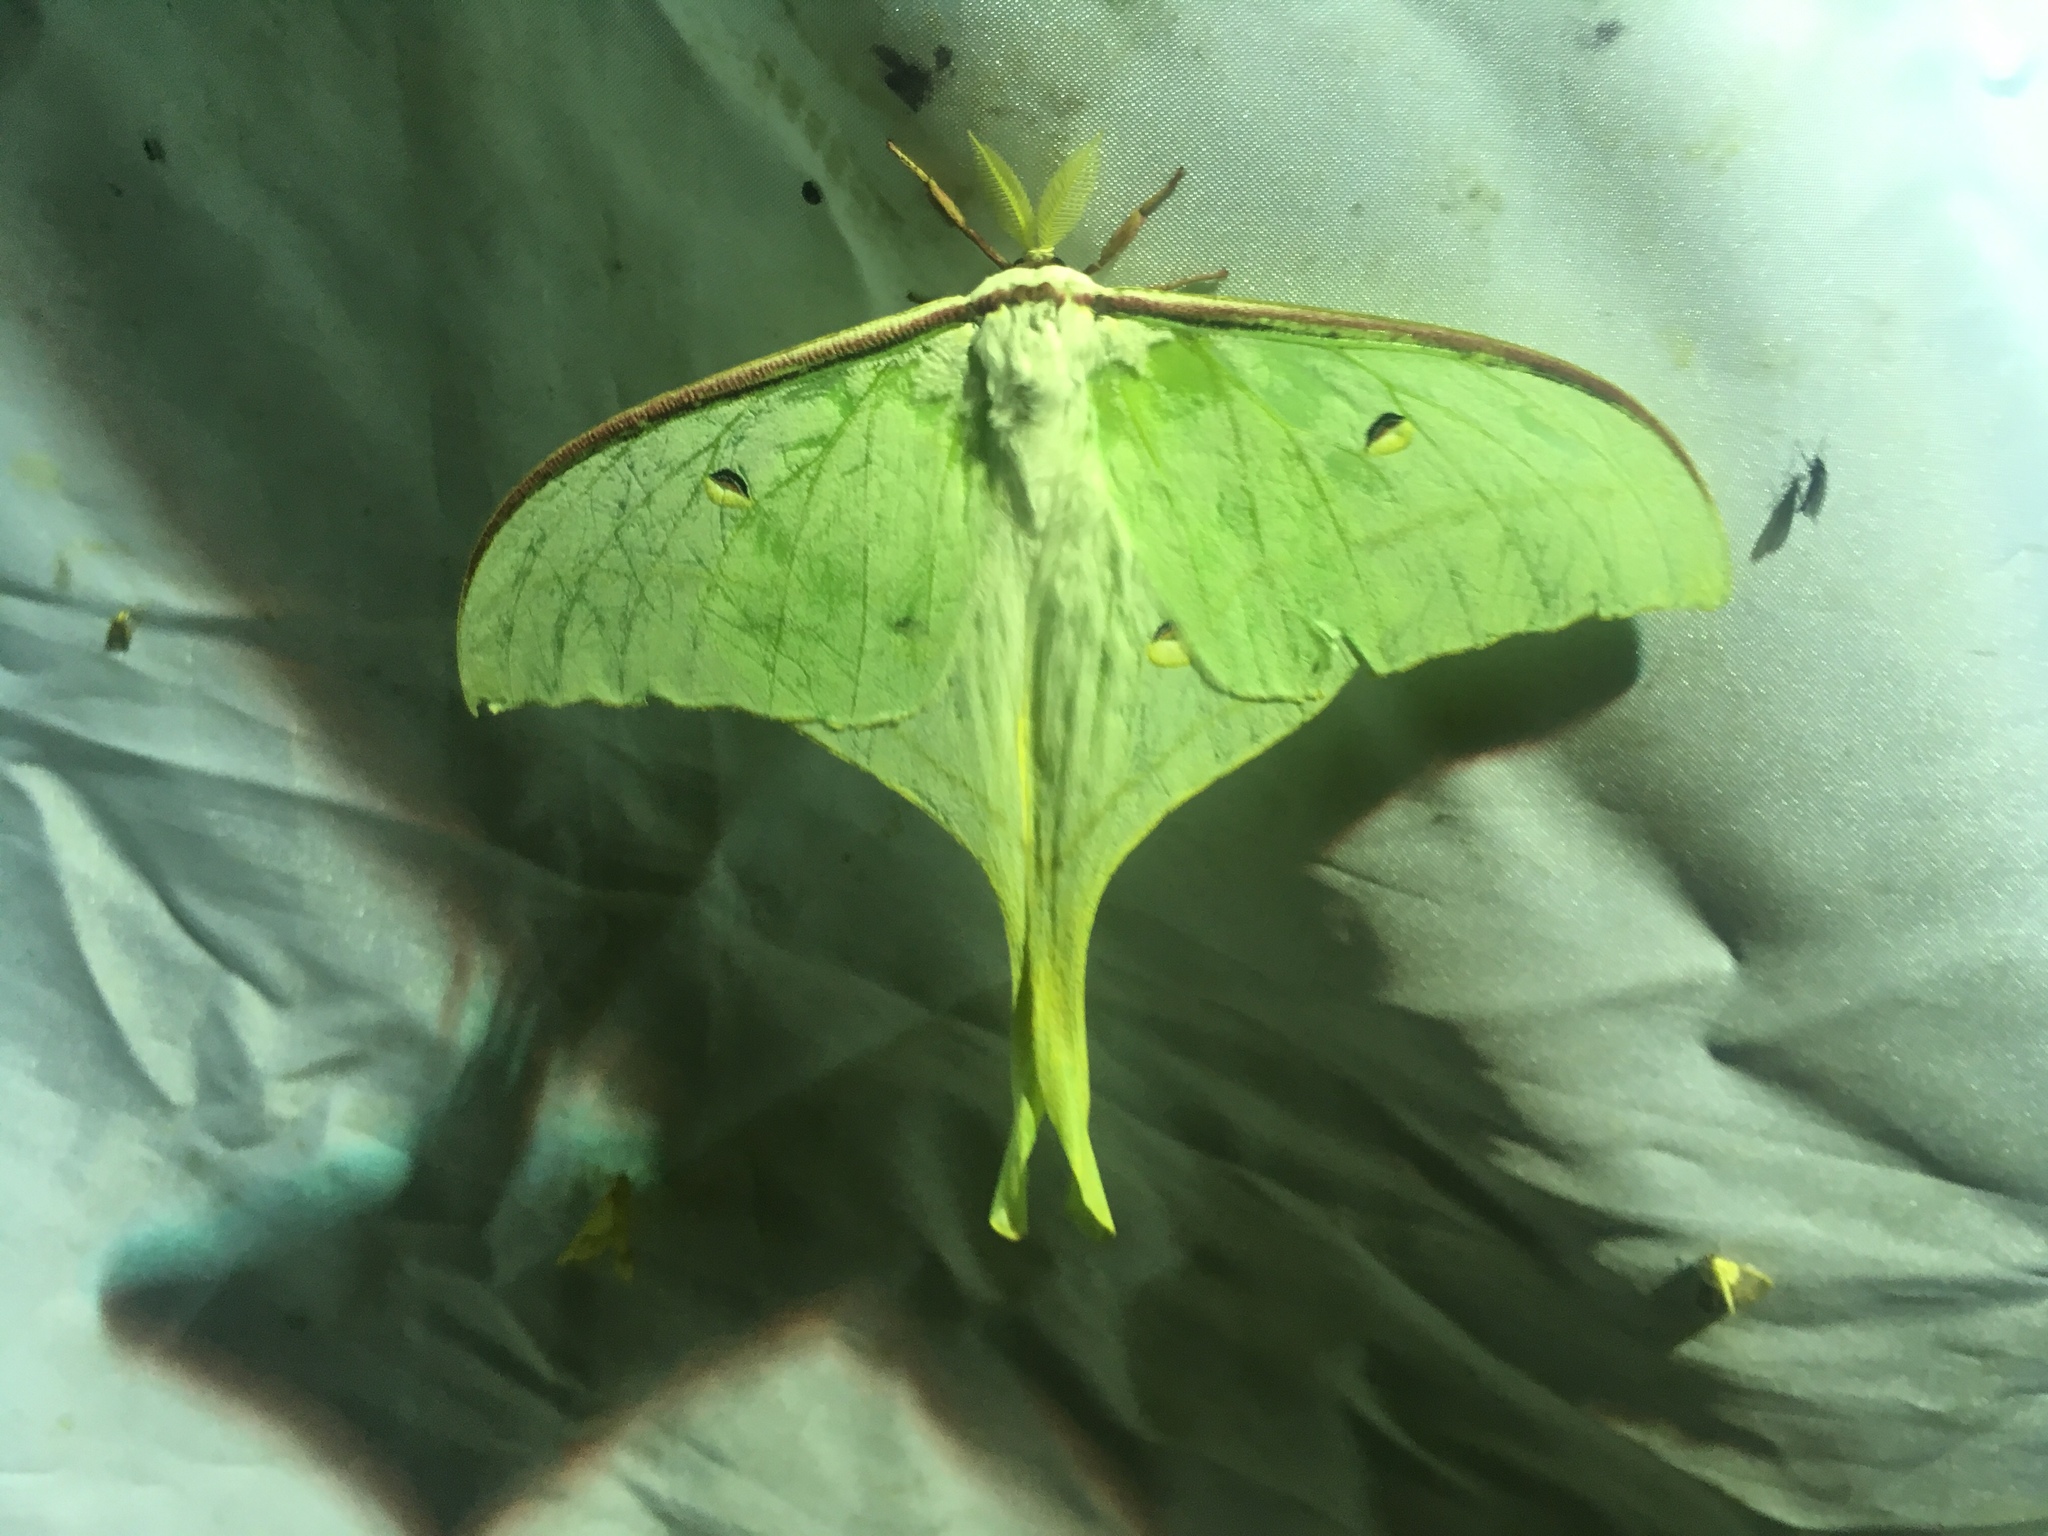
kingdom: Animalia
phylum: Arthropoda
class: Insecta
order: Lepidoptera
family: Saturniidae
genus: Actias
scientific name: Actias ningpoana
